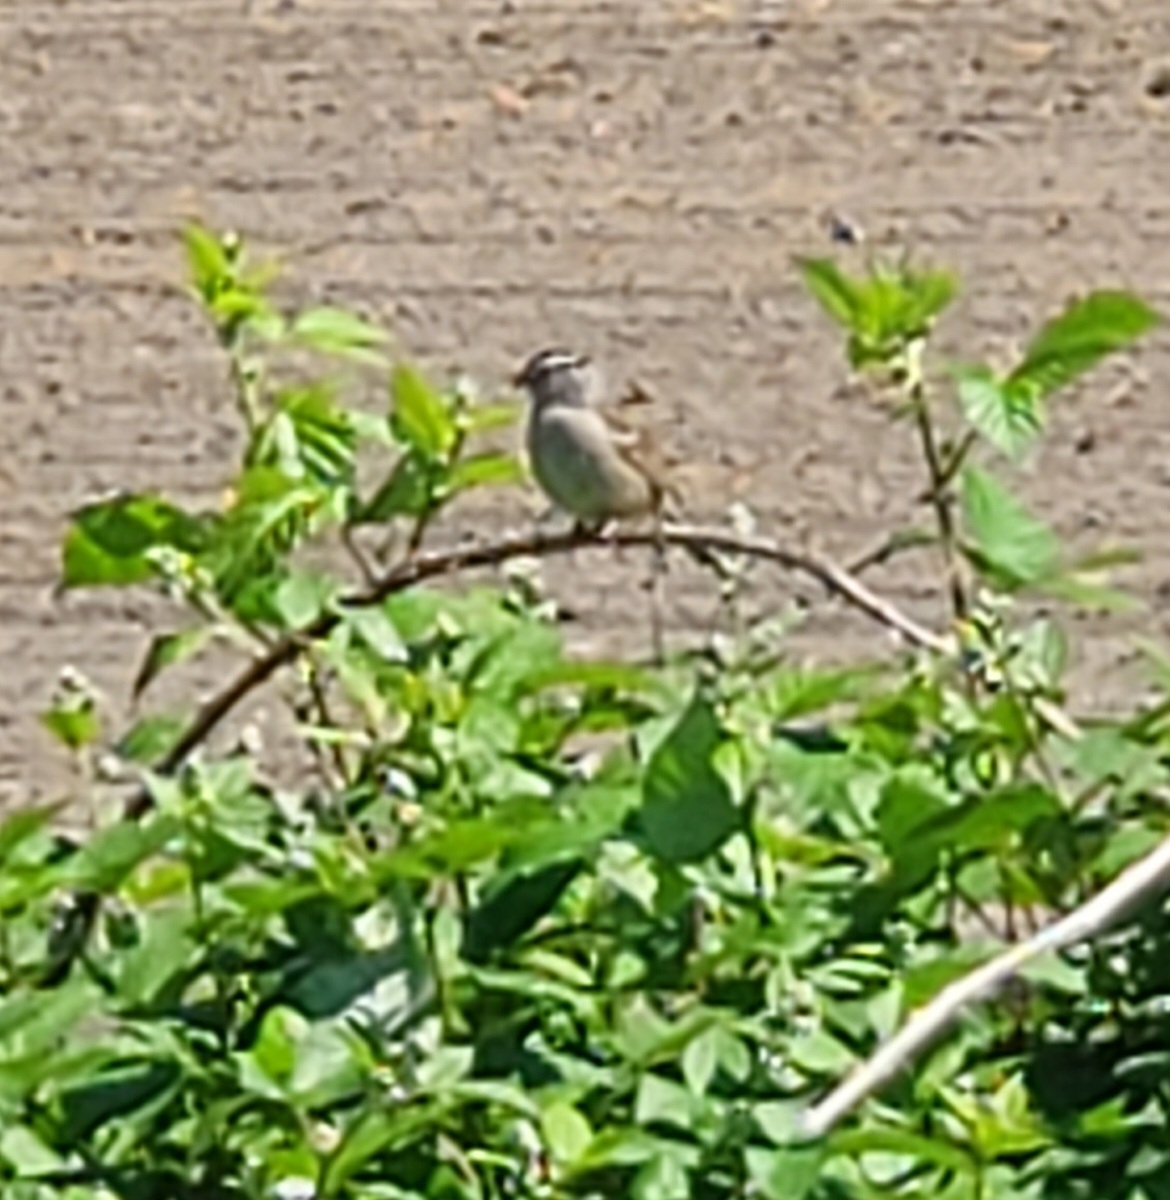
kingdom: Animalia
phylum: Chordata
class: Aves
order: Passeriformes
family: Passerellidae
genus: Zonotrichia
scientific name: Zonotrichia leucophrys
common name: White-crowned sparrow
